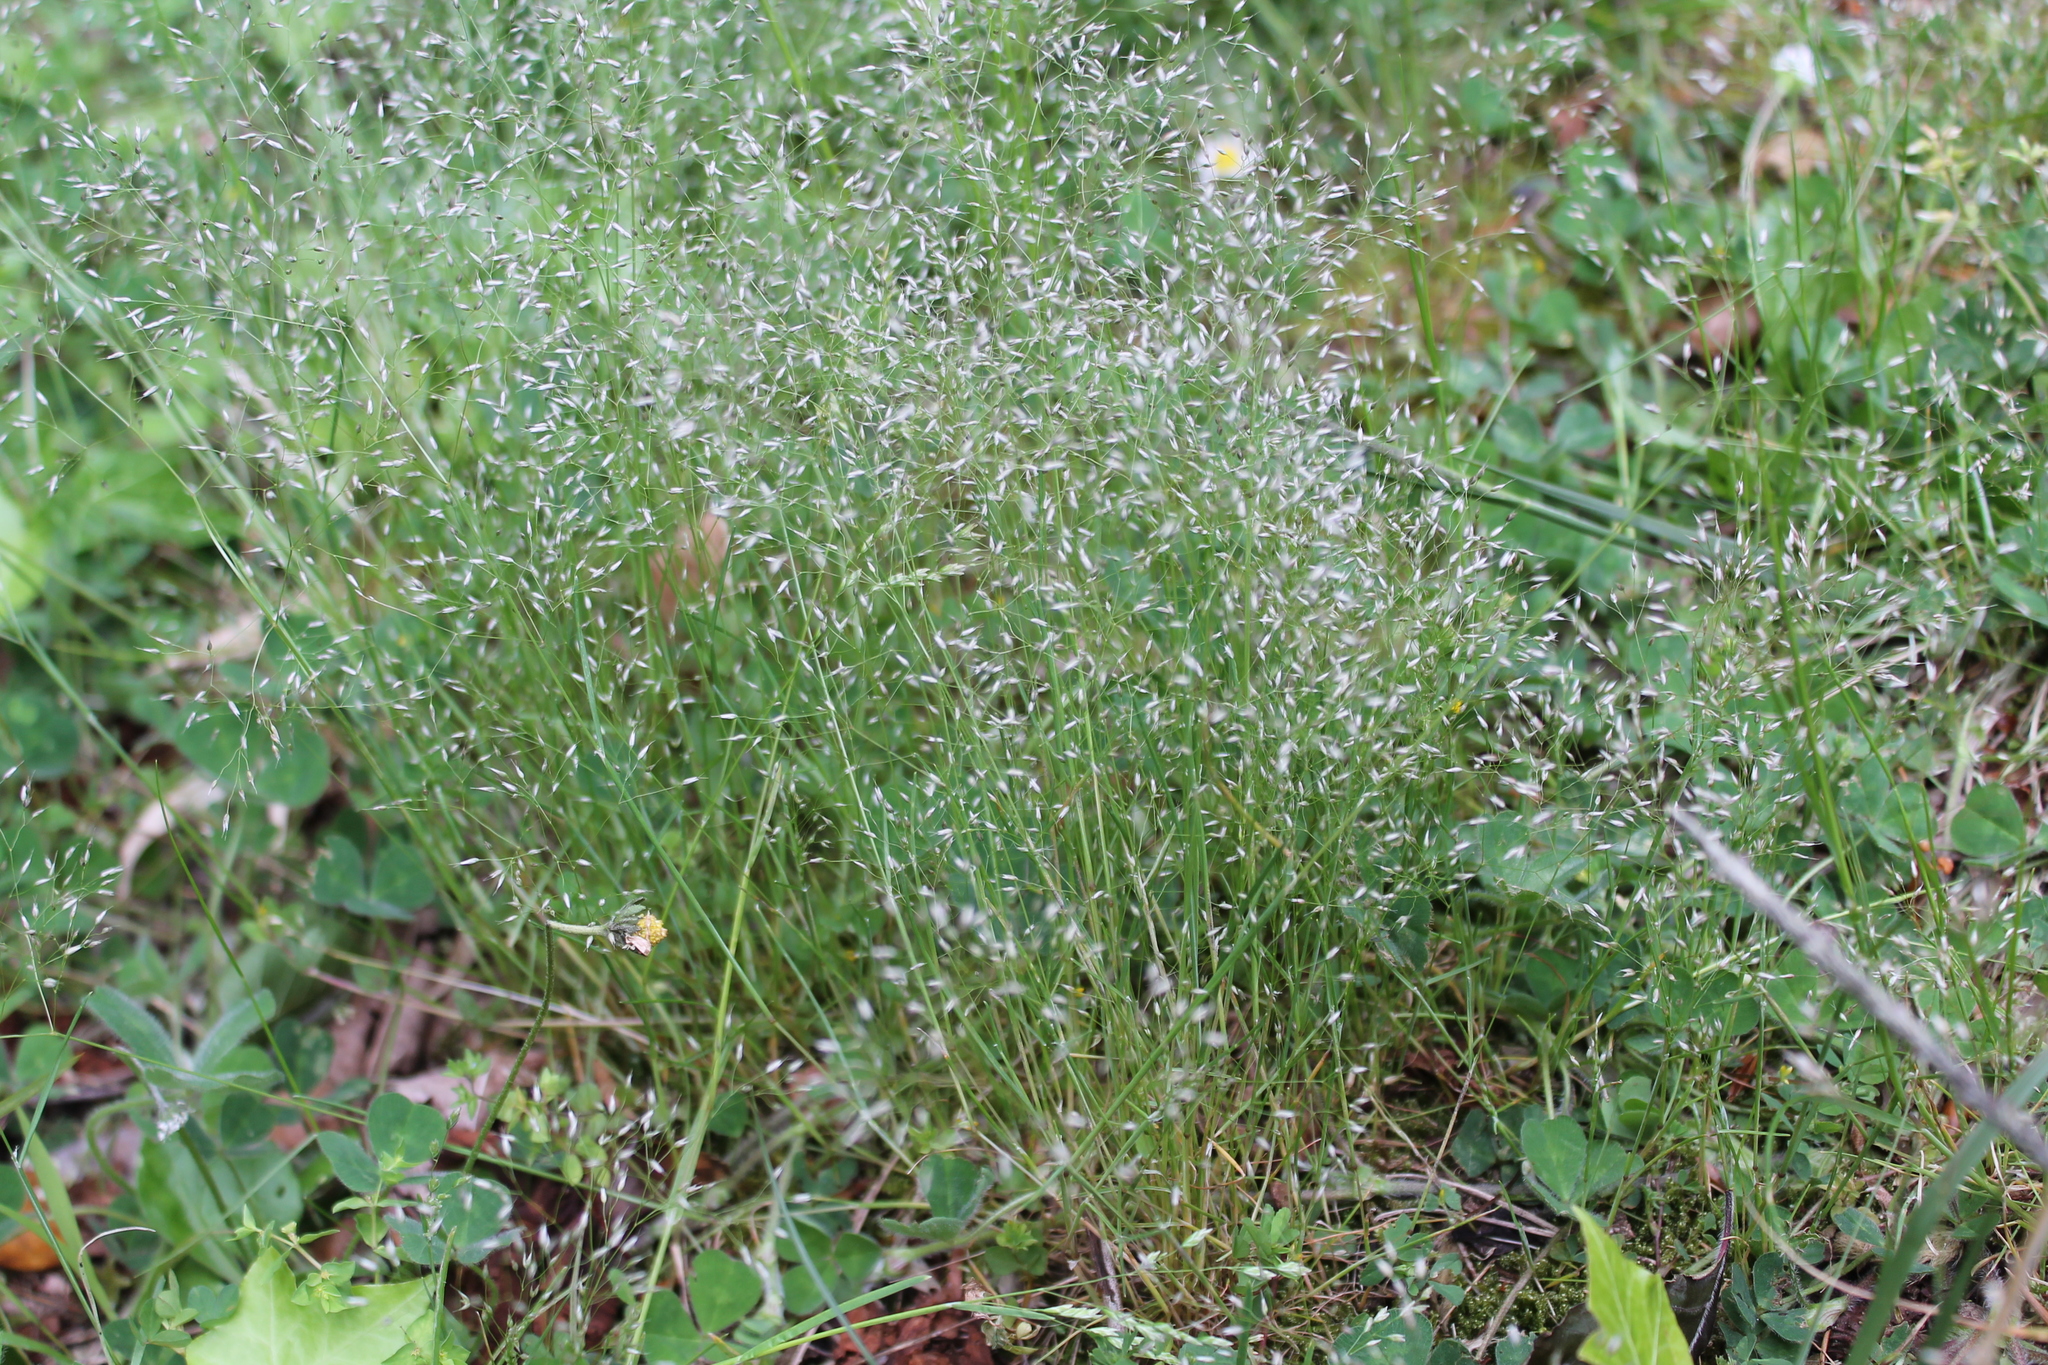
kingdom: Plantae
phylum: Tracheophyta
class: Liliopsida
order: Poales
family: Poaceae
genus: Aira
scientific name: Aira caryophyllea
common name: Silver hairgrass
